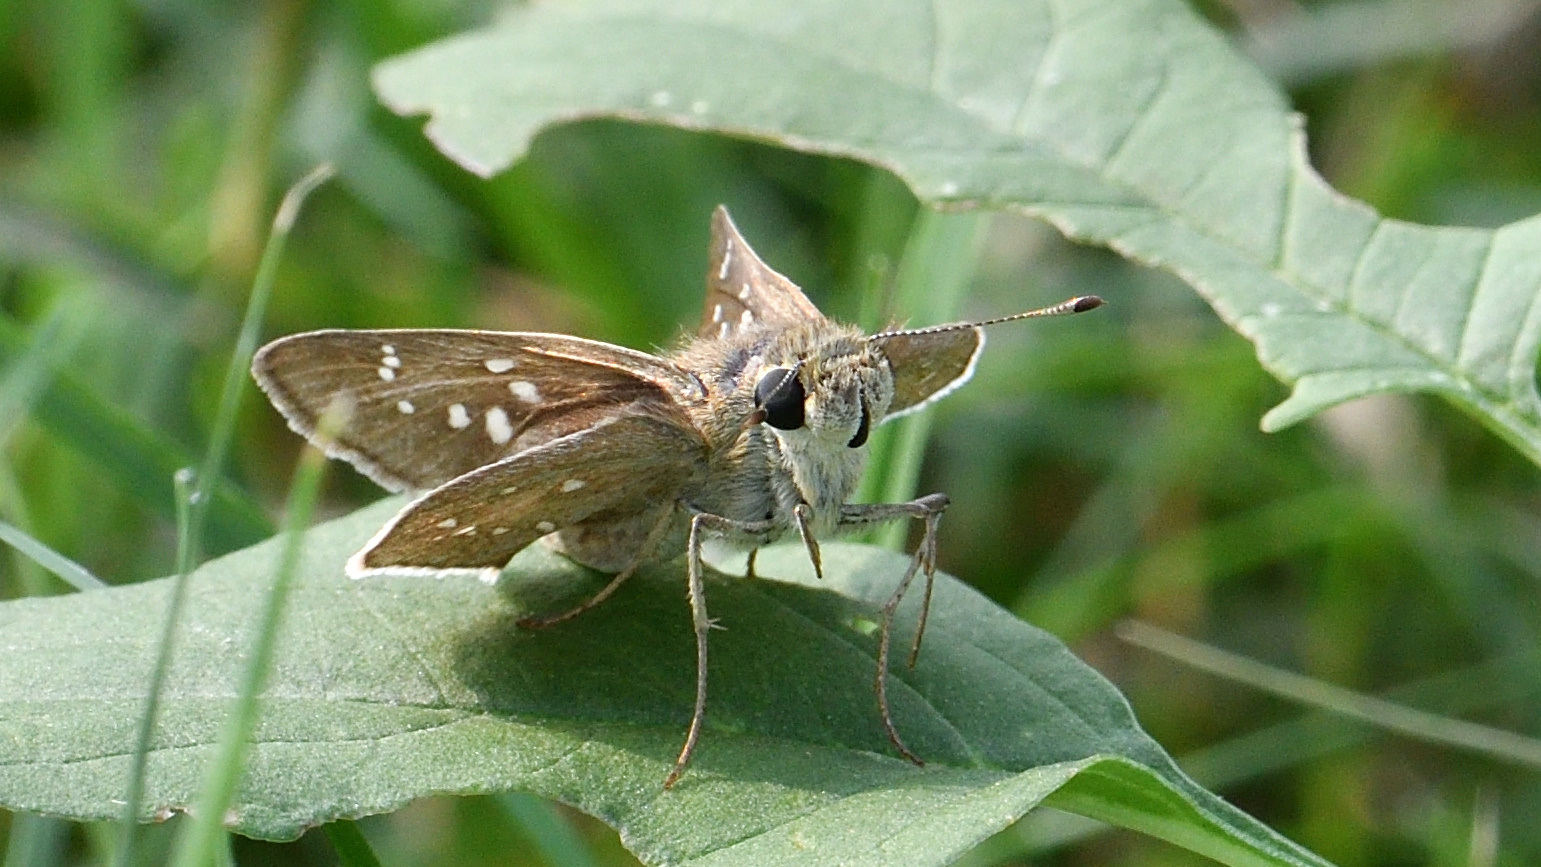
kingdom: Animalia
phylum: Arthropoda
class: Insecta
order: Lepidoptera
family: Hesperiidae
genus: Pelopidas
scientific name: Pelopidas mathias
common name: Black-branded swift
